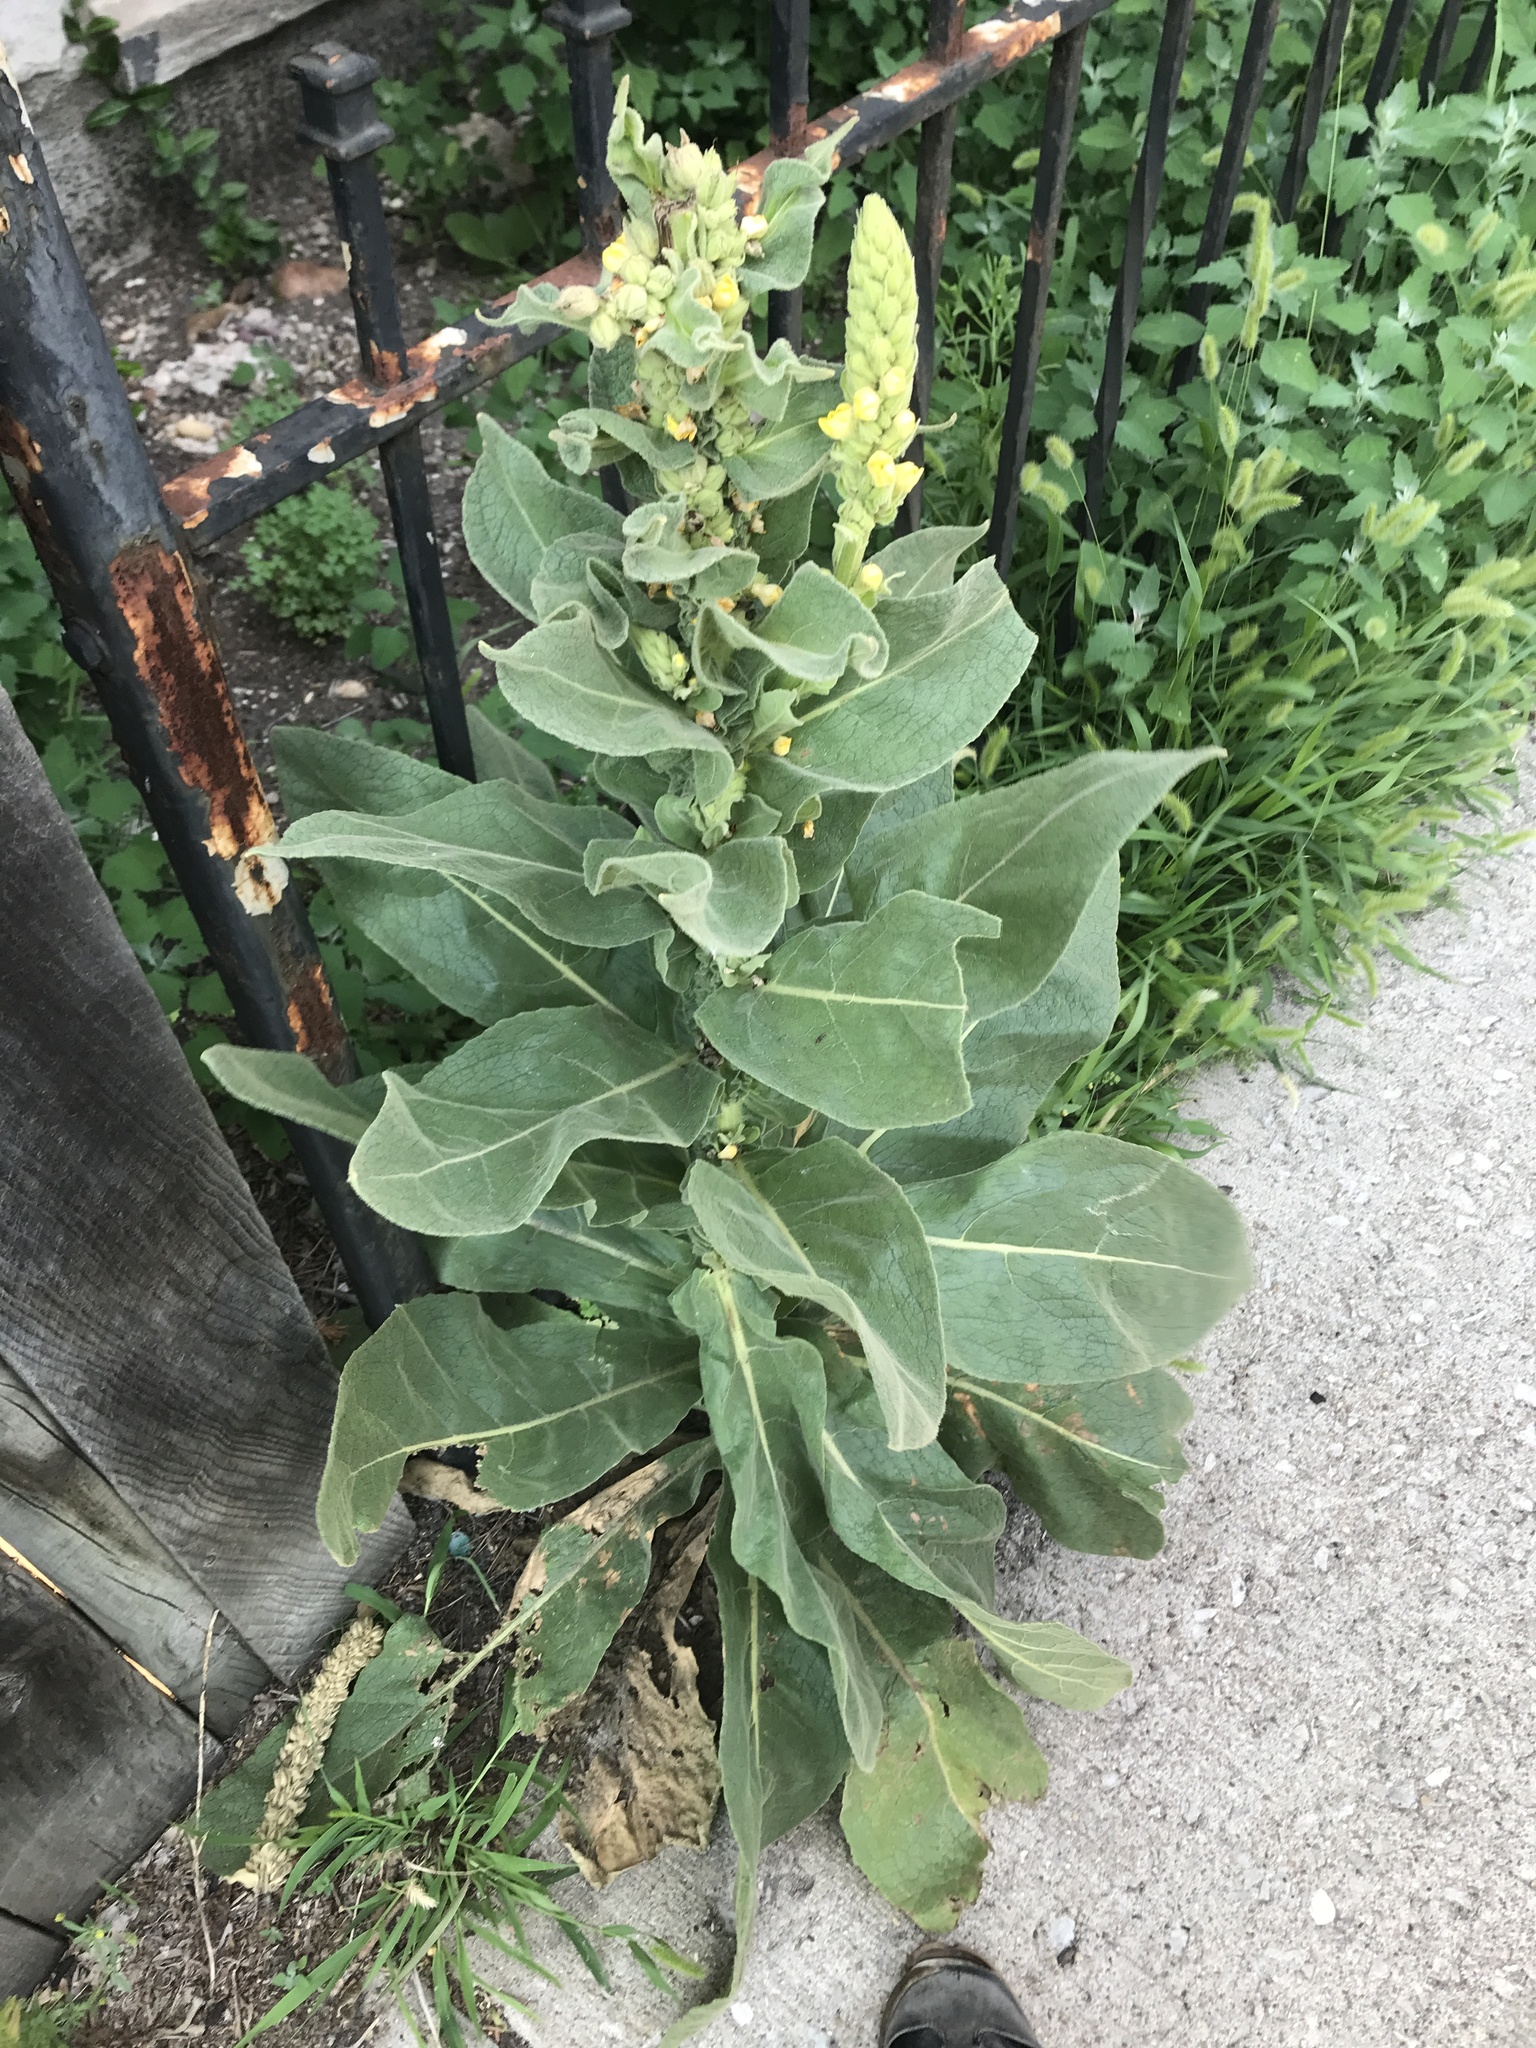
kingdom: Plantae
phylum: Tracheophyta
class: Magnoliopsida
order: Lamiales
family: Scrophulariaceae
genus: Verbascum
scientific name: Verbascum thapsus
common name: Common mullein
